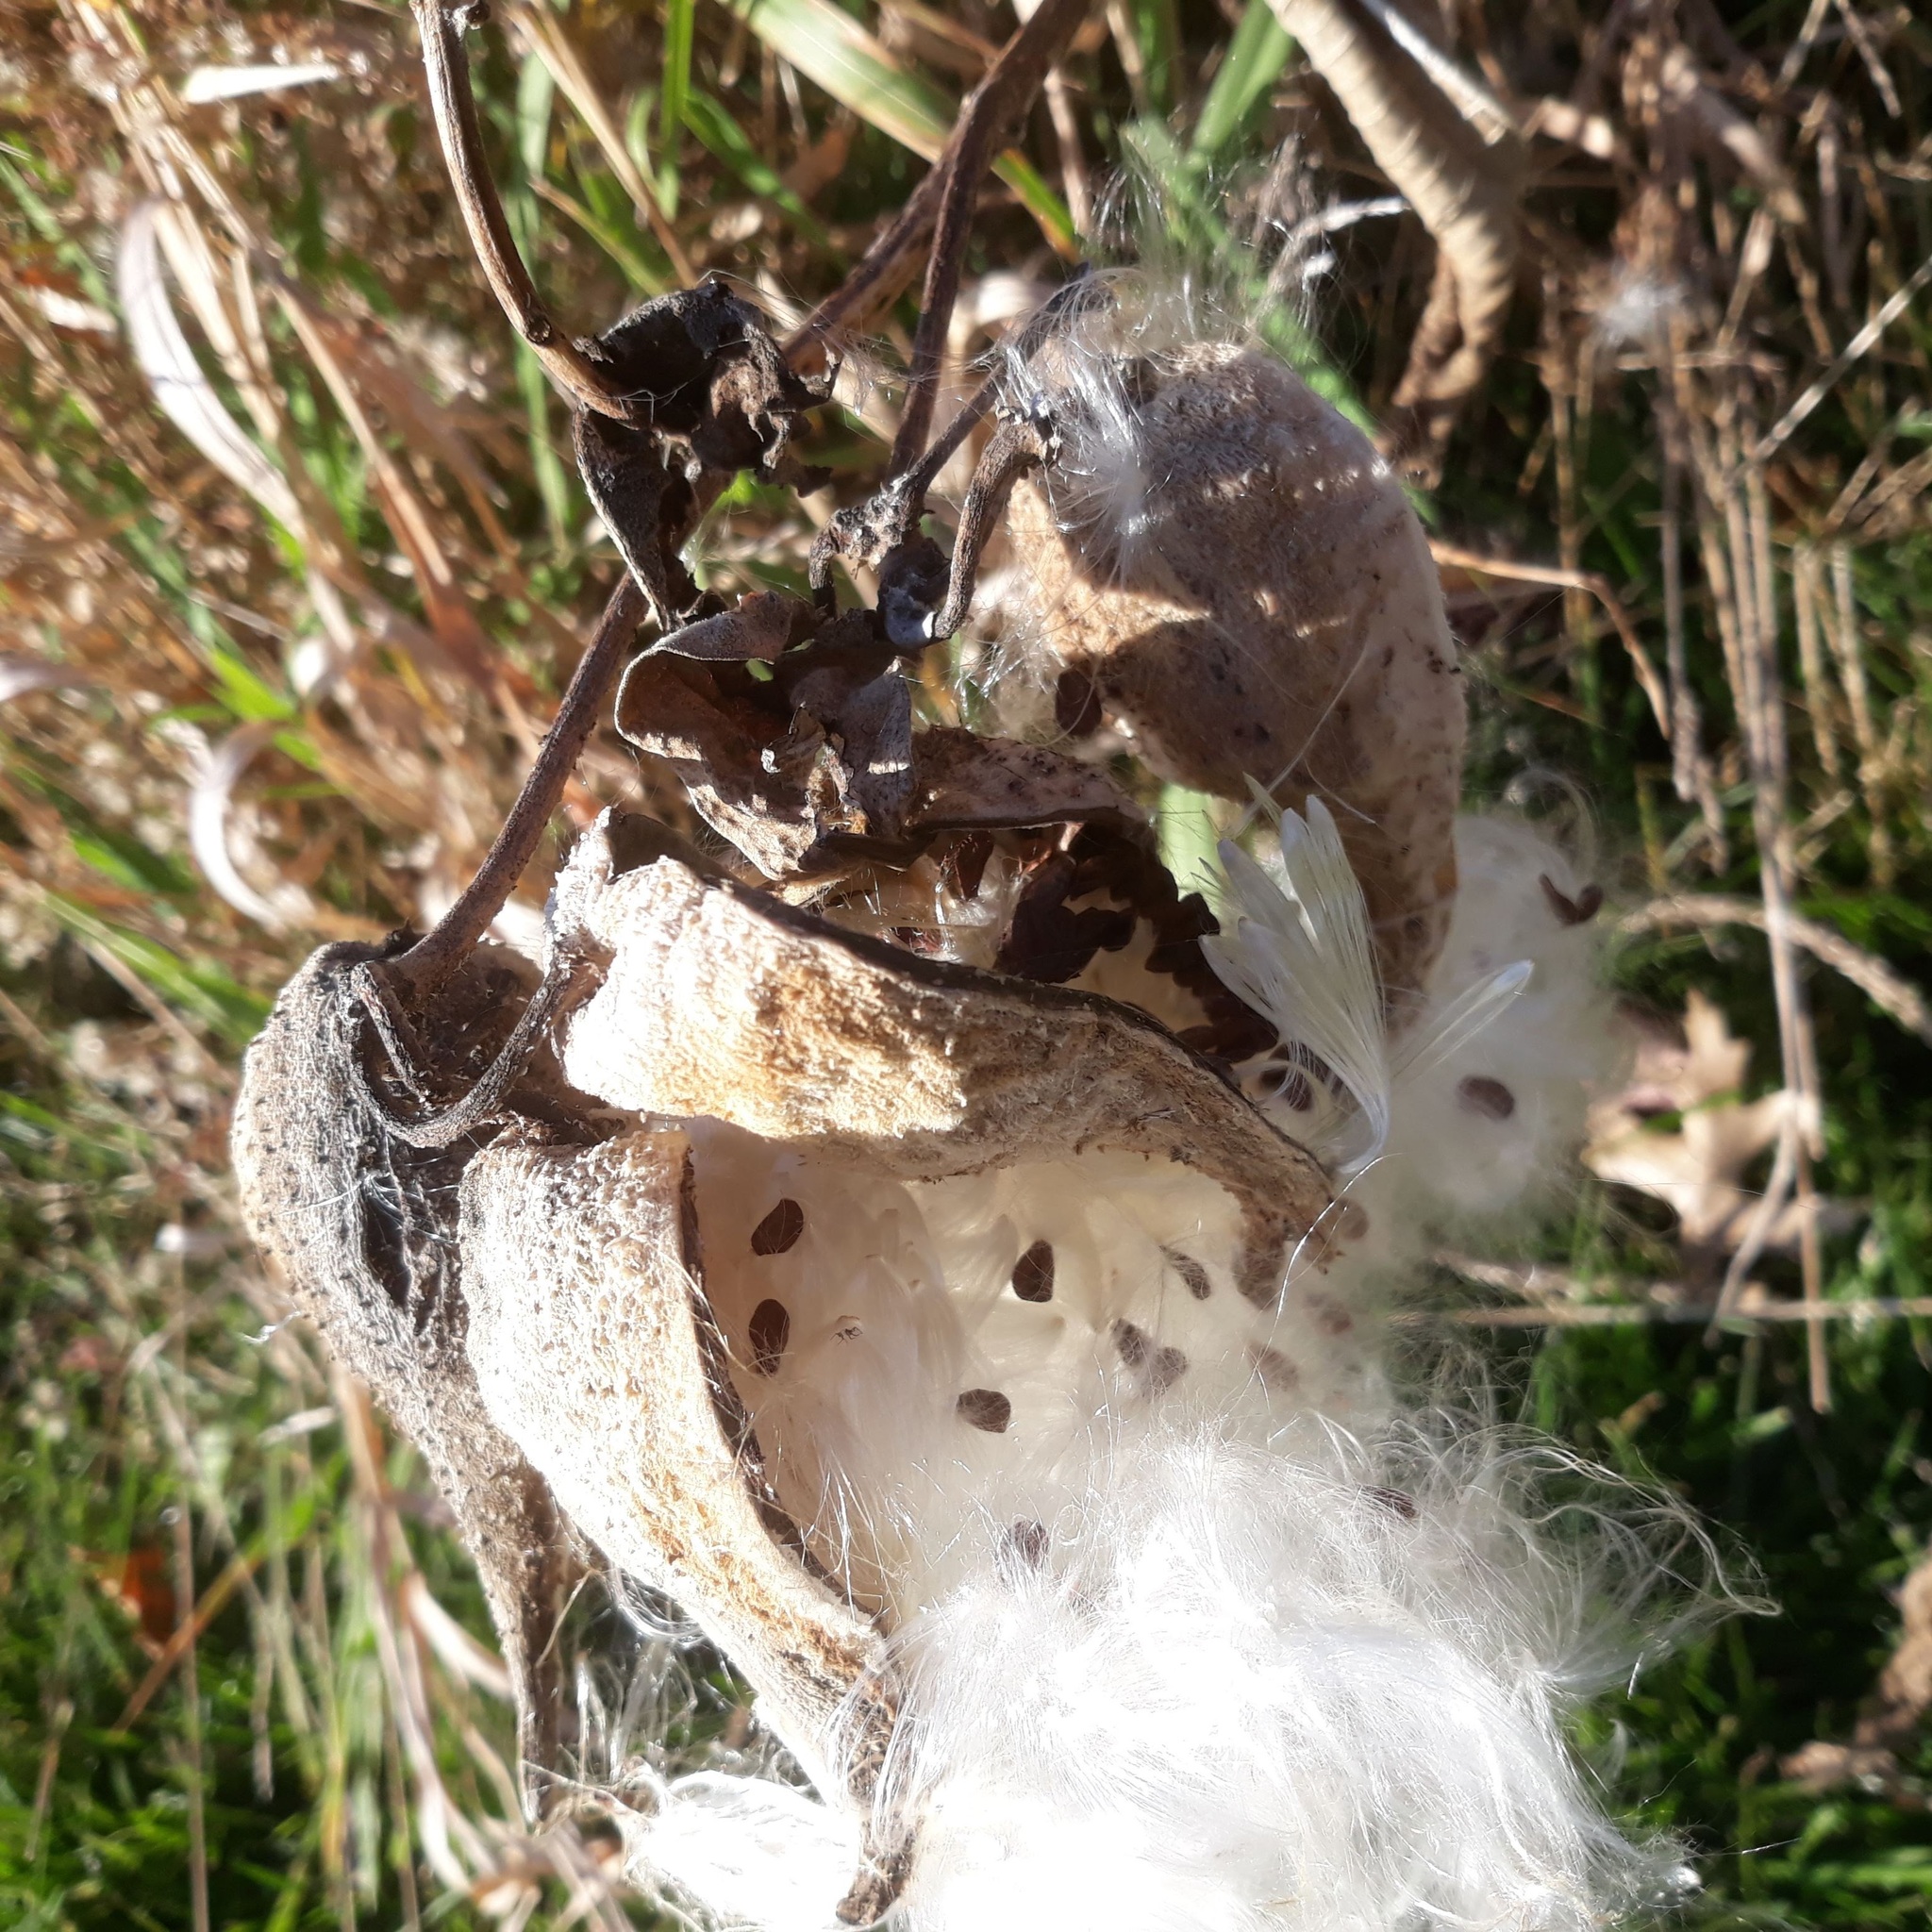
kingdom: Plantae
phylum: Tracheophyta
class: Magnoliopsida
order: Gentianales
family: Apocynaceae
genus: Asclepias
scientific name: Asclepias syriaca
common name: Common milkweed
